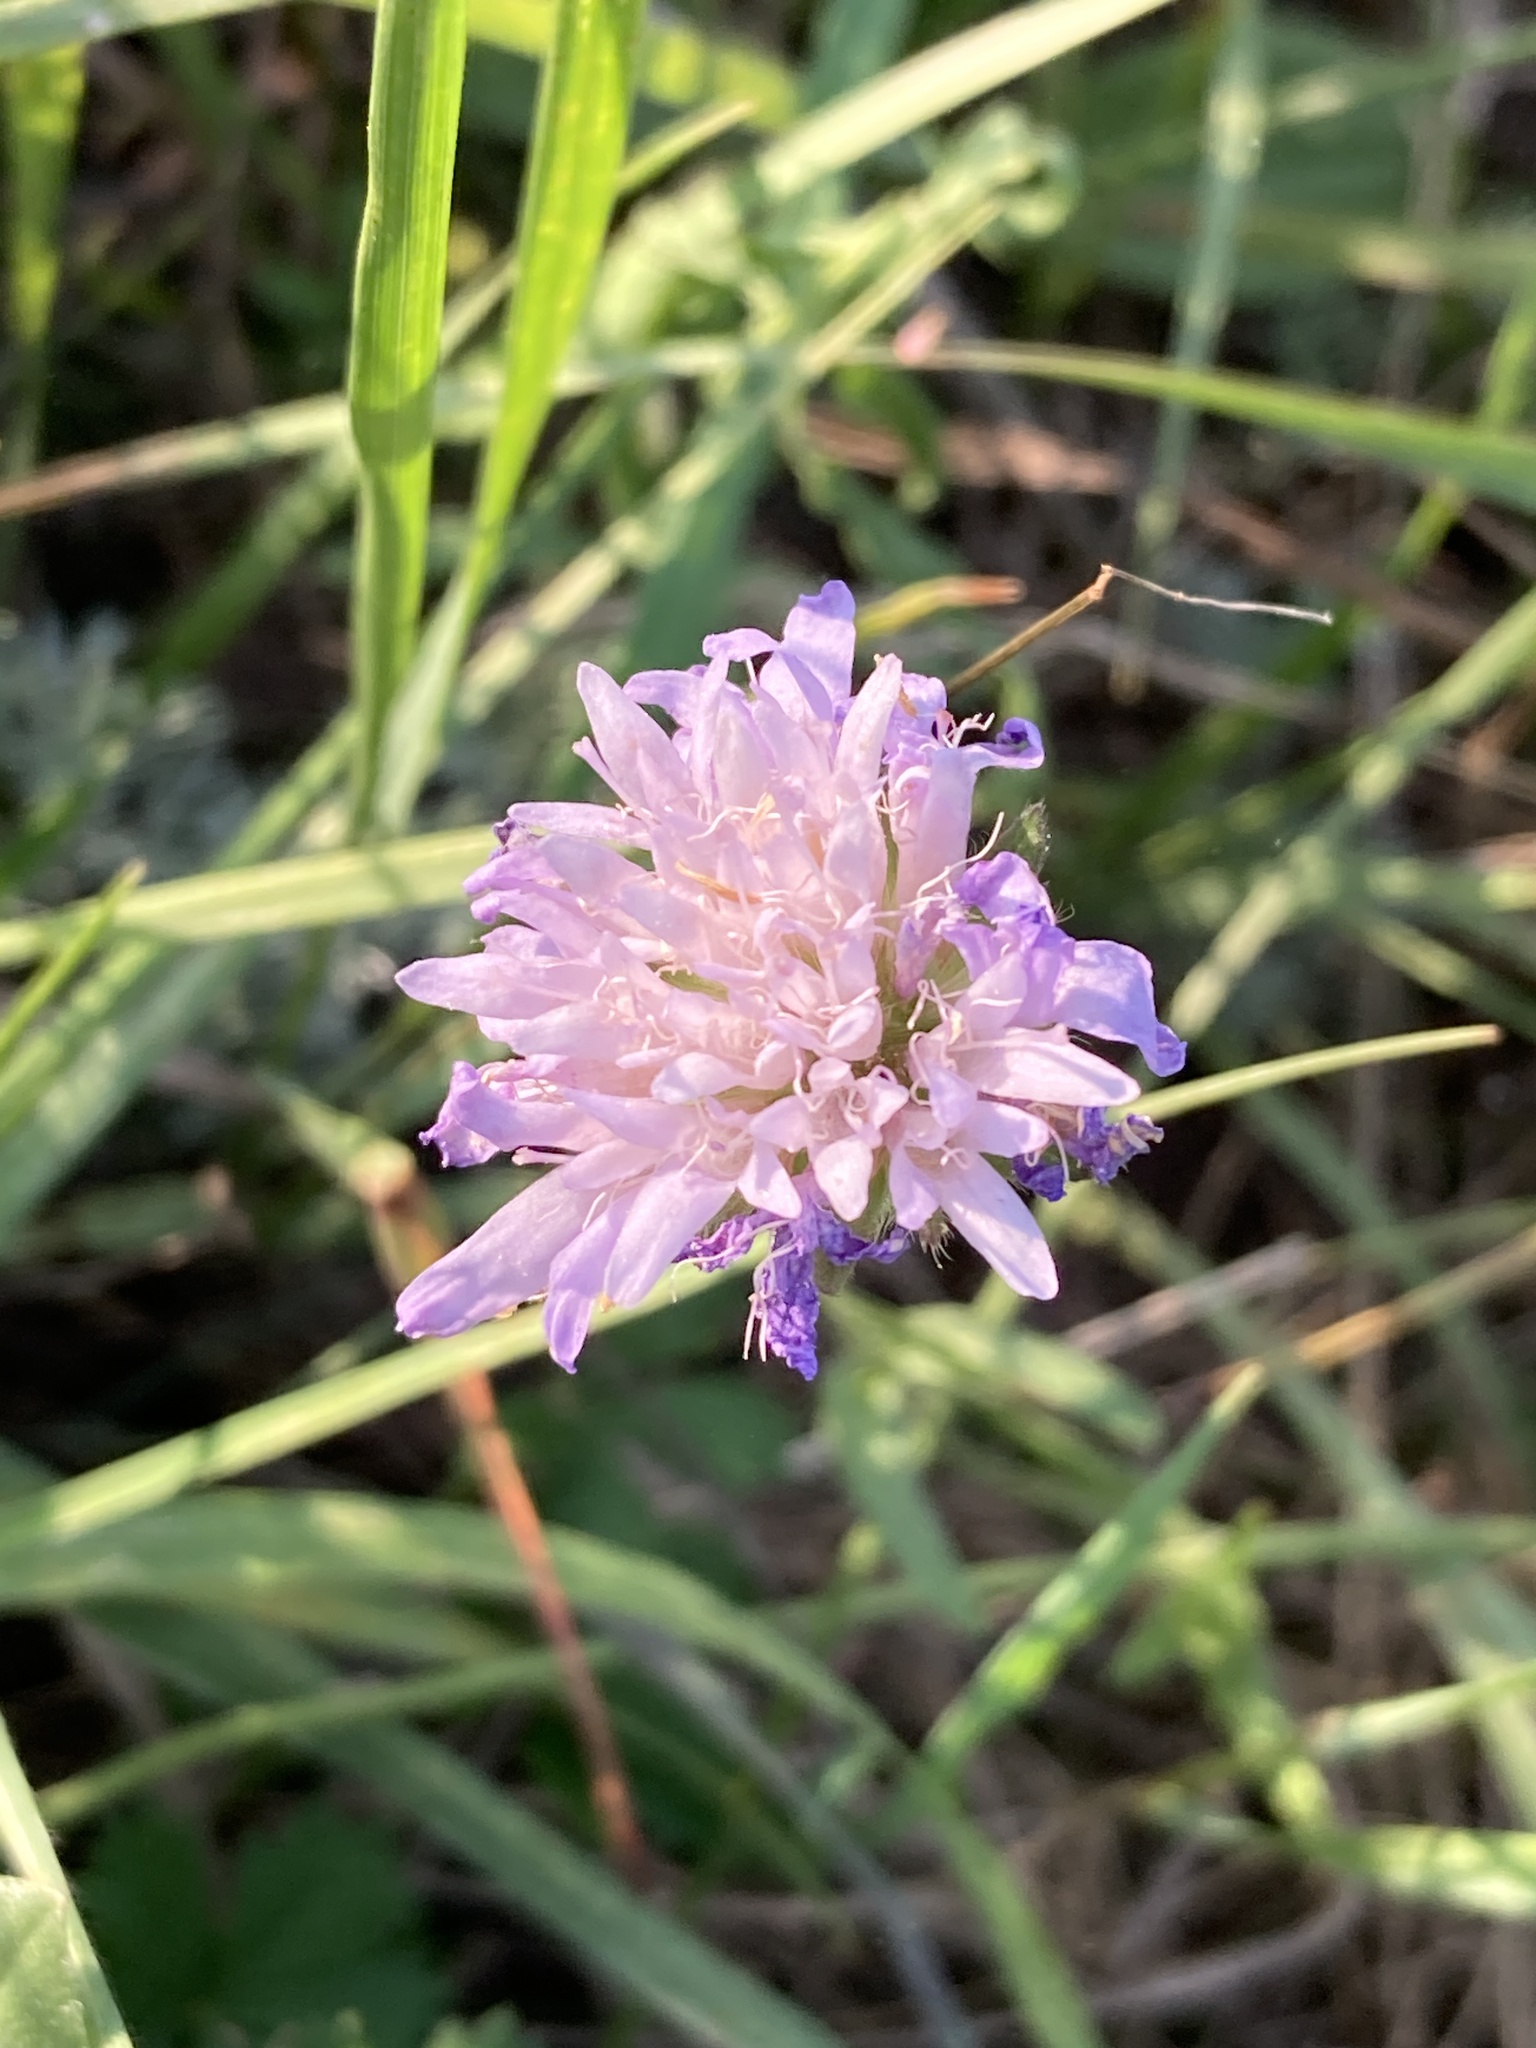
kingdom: Plantae
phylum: Tracheophyta
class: Magnoliopsida
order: Dipsacales
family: Caprifoliaceae
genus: Knautia
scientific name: Knautia arvensis
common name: Field scabiosa
